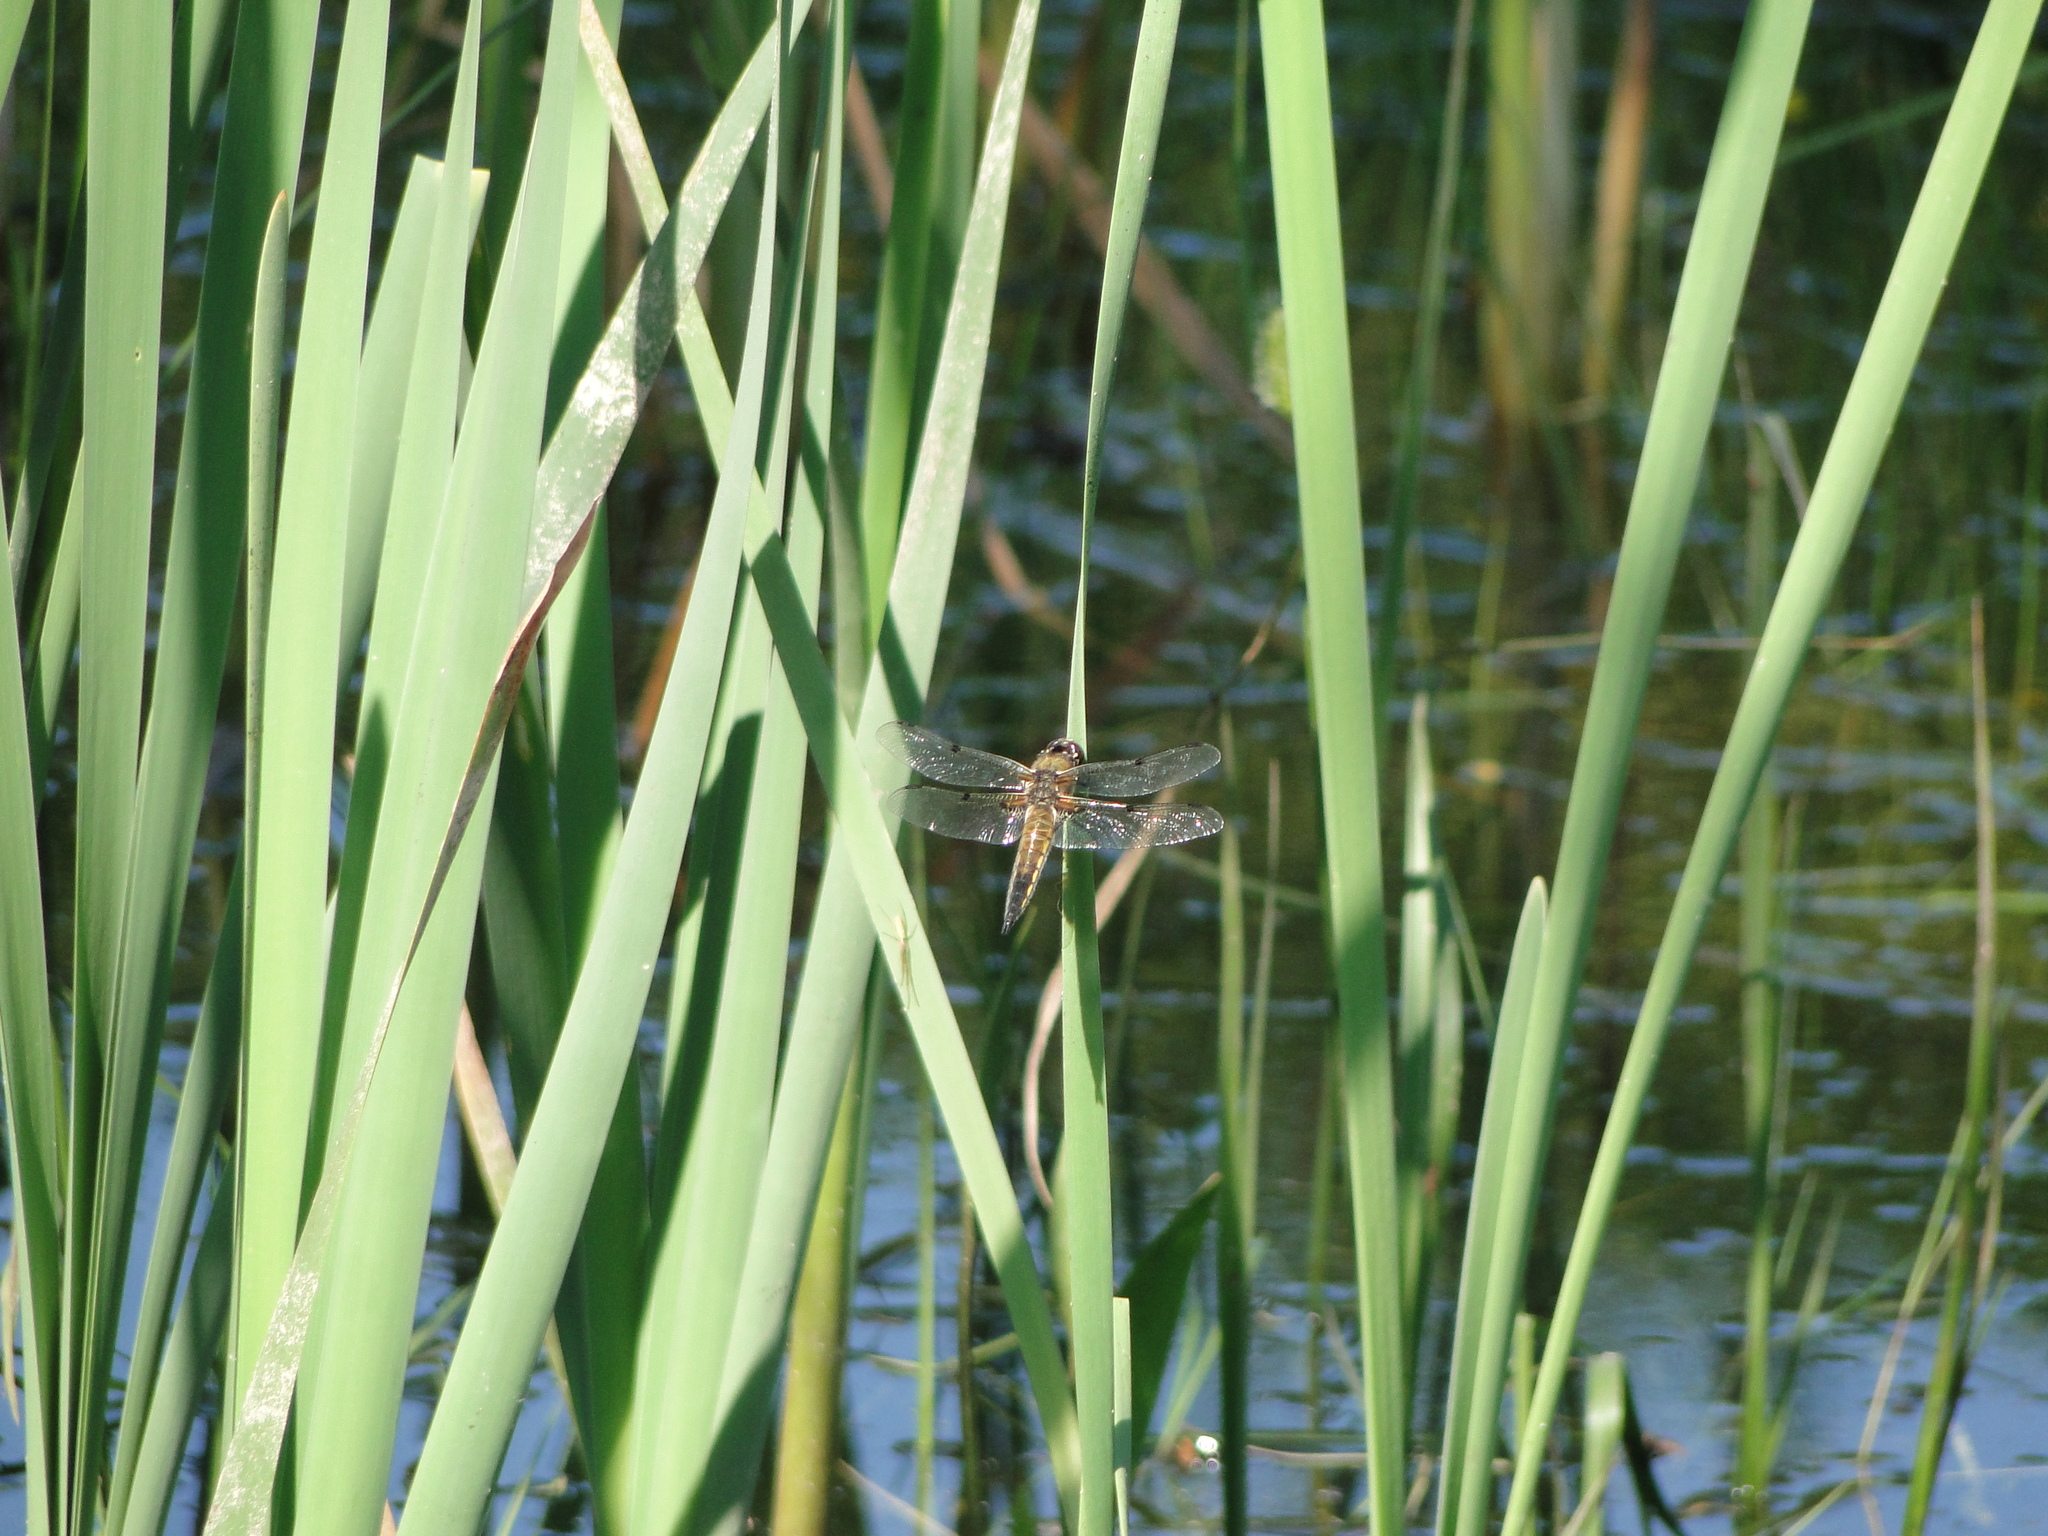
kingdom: Animalia
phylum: Arthropoda
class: Insecta
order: Odonata
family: Libellulidae
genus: Libellula
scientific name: Libellula quadrimaculata
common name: Four-spotted chaser
